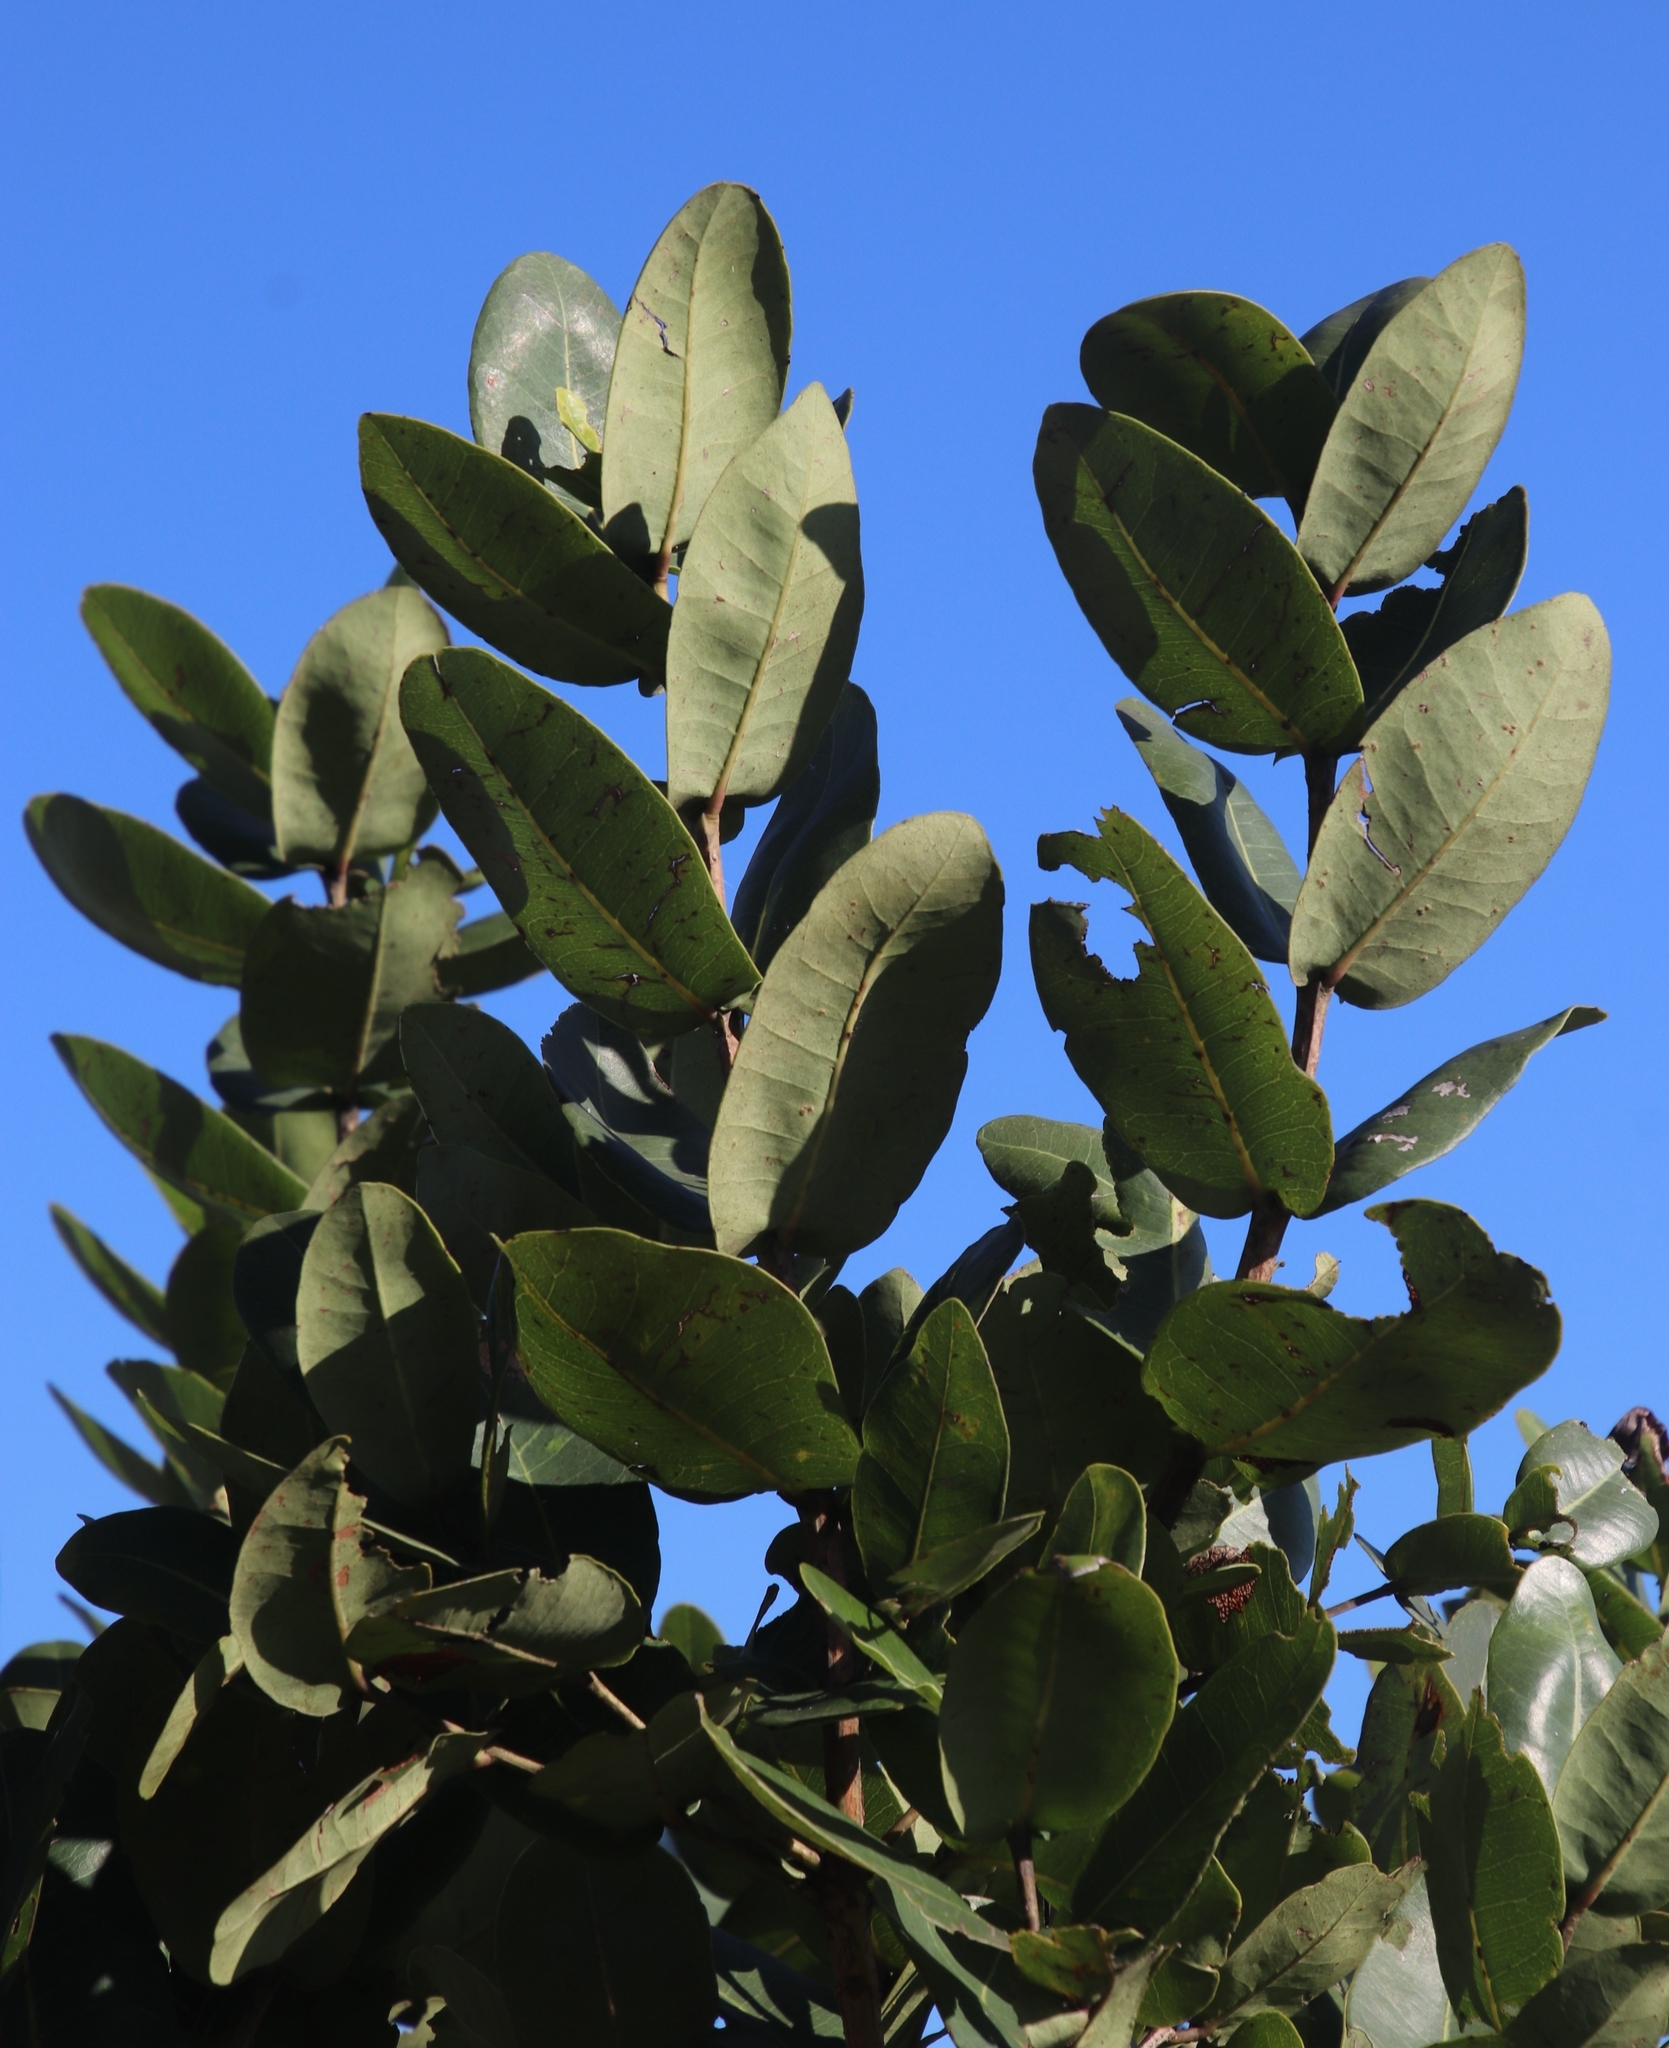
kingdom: Plantae
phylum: Tracheophyta
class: Magnoliopsida
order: Myrtales
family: Myrtaceae
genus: Syzygium
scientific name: Syzygium cordatum
